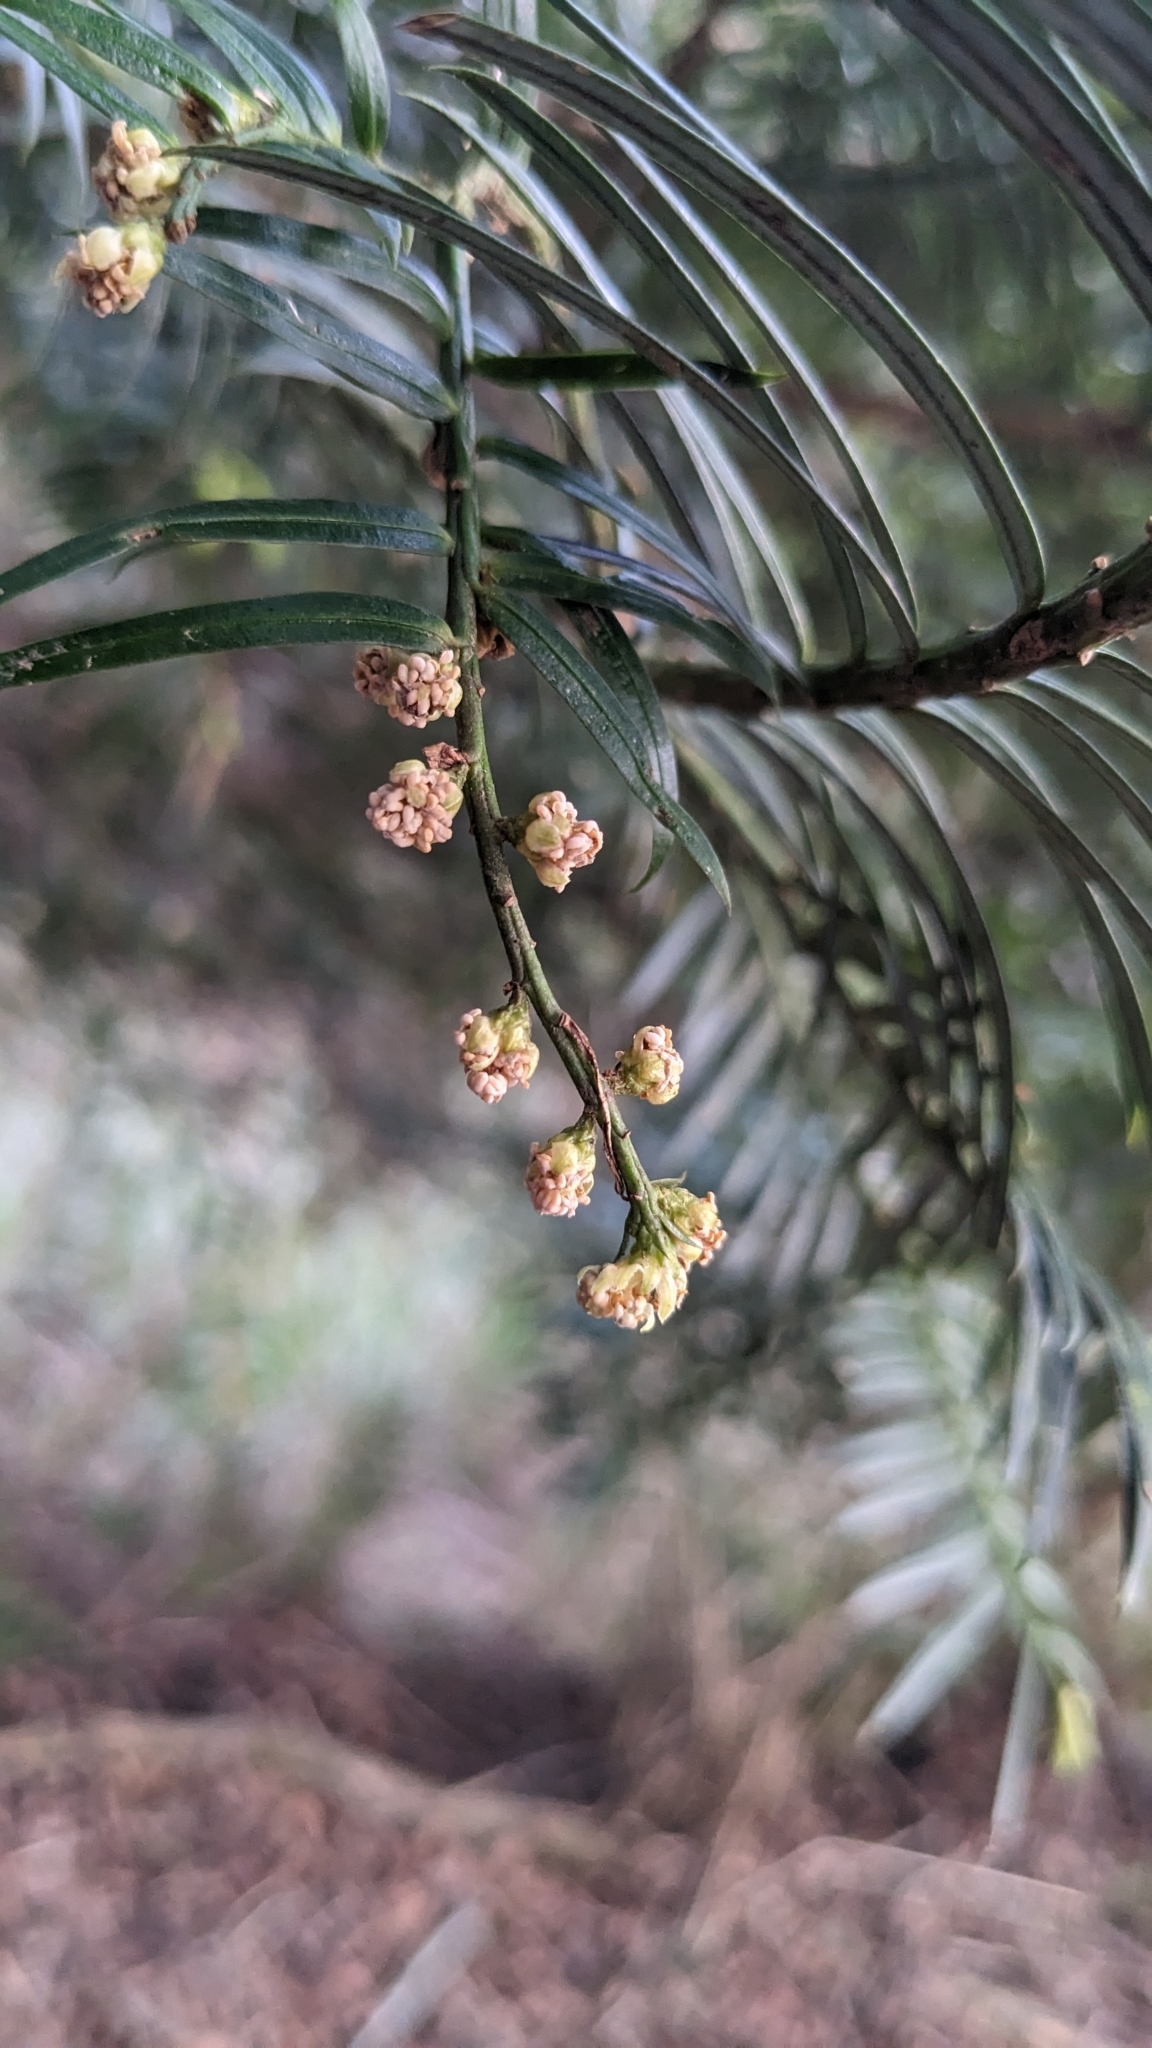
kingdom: Plantae
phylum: Tracheophyta
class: Pinopsida
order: Pinales
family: Cephalotaxaceae
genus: Cephalotaxus
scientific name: Cephalotaxus harringtonii
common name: Harrington's plum yew
